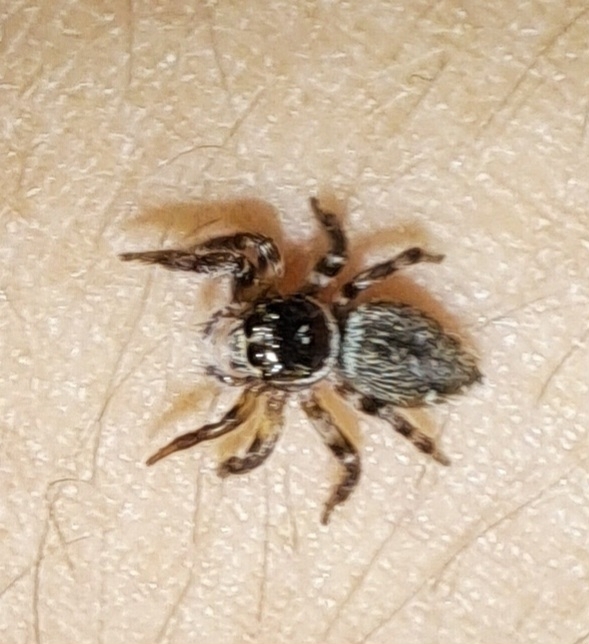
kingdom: Animalia
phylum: Arthropoda
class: Arachnida
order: Araneae
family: Salticidae
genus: Evarcha
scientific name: Evarcha jucunda
